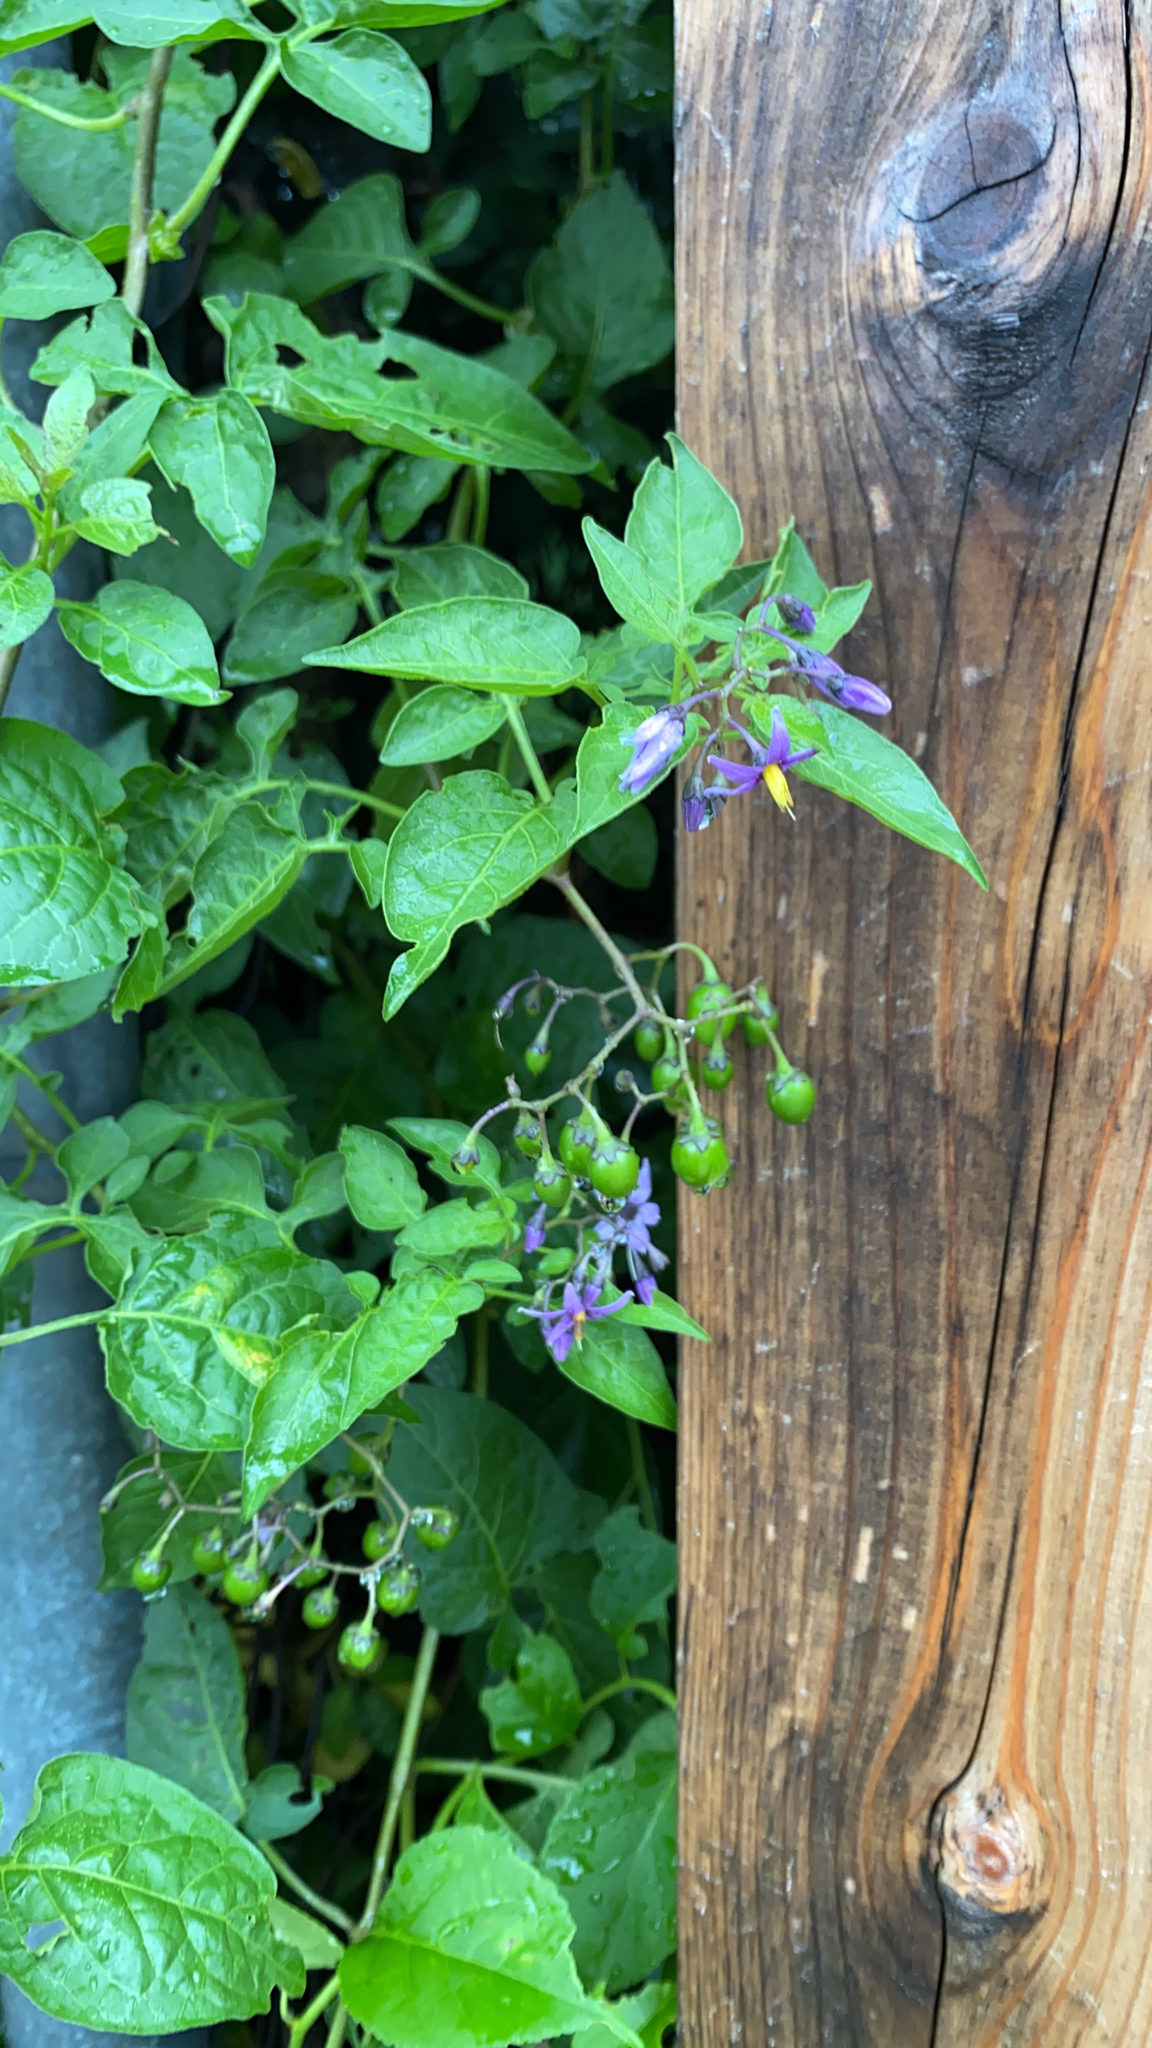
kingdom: Plantae
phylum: Tracheophyta
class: Magnoliopsida
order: Solanales
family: Solanaceae
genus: Solanum
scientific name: Solanum dulcamara
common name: Climbing nightshade
